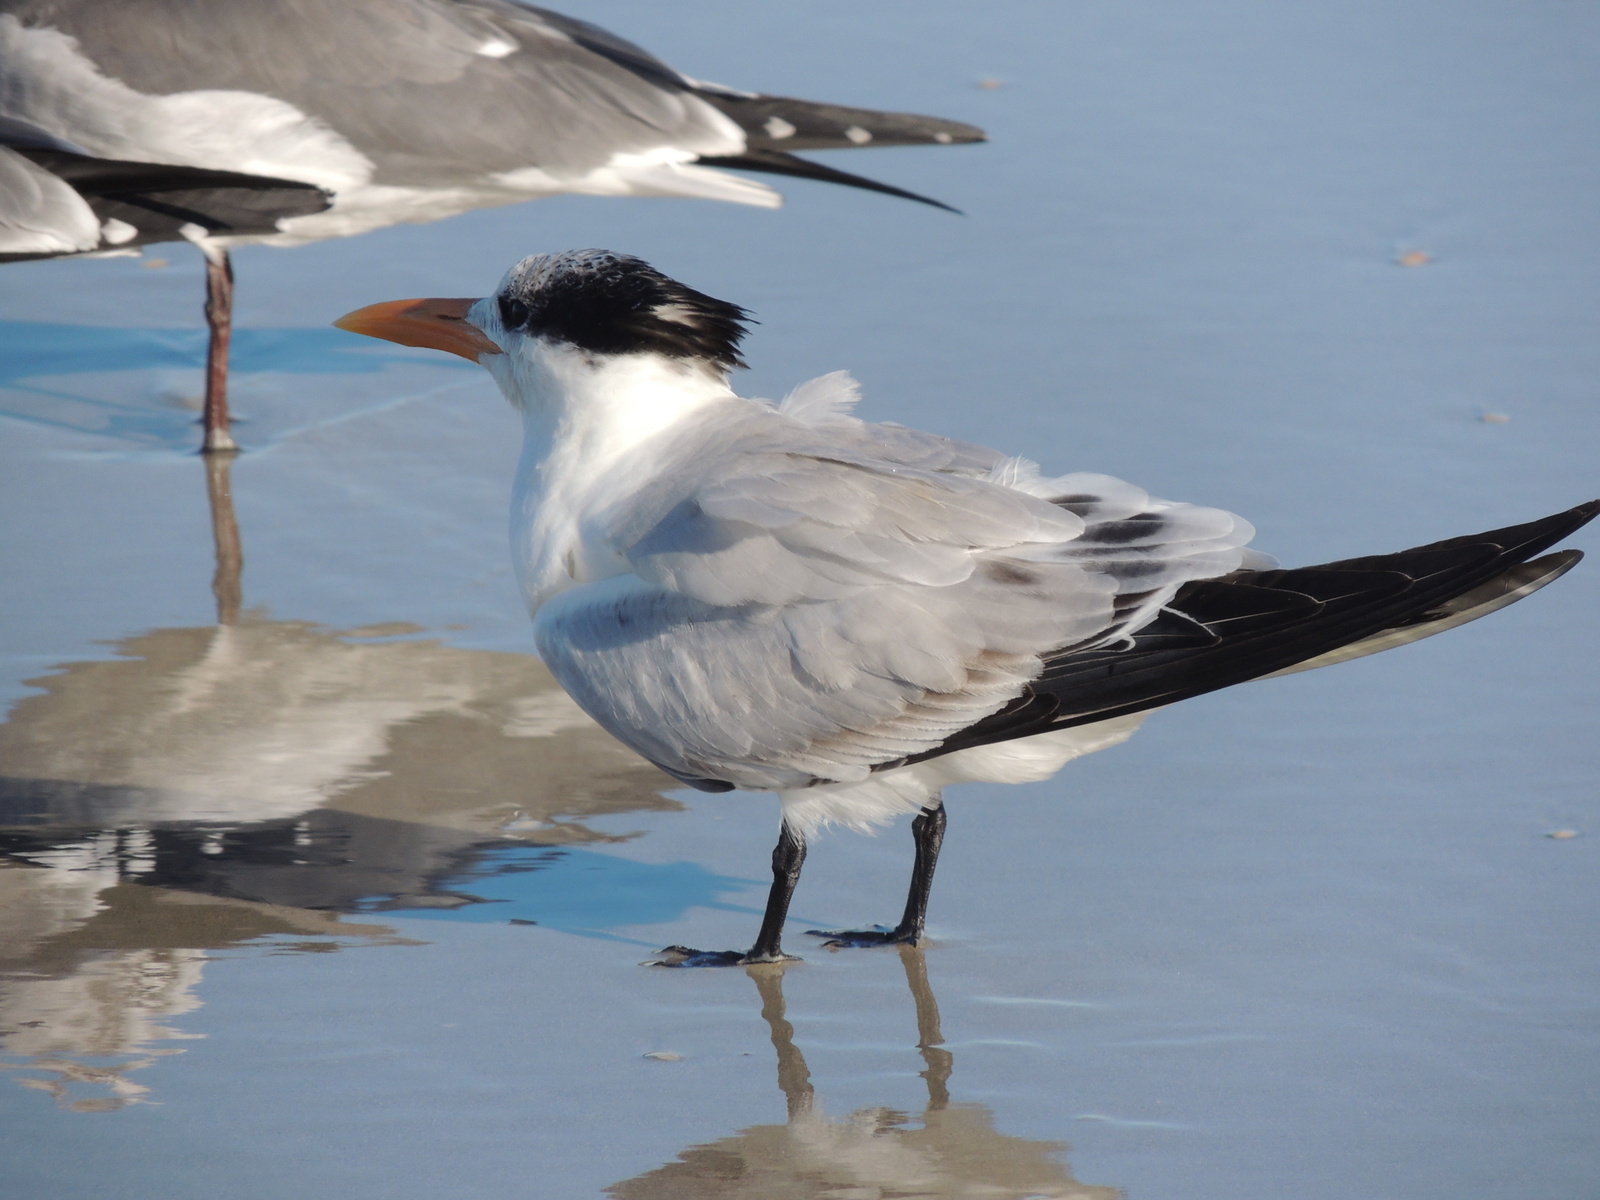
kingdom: Animalia
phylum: Chordata
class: Aves
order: Charadriiformes
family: Laridae
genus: Thalasseus
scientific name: Thalasseus maximus
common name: Royal tern
